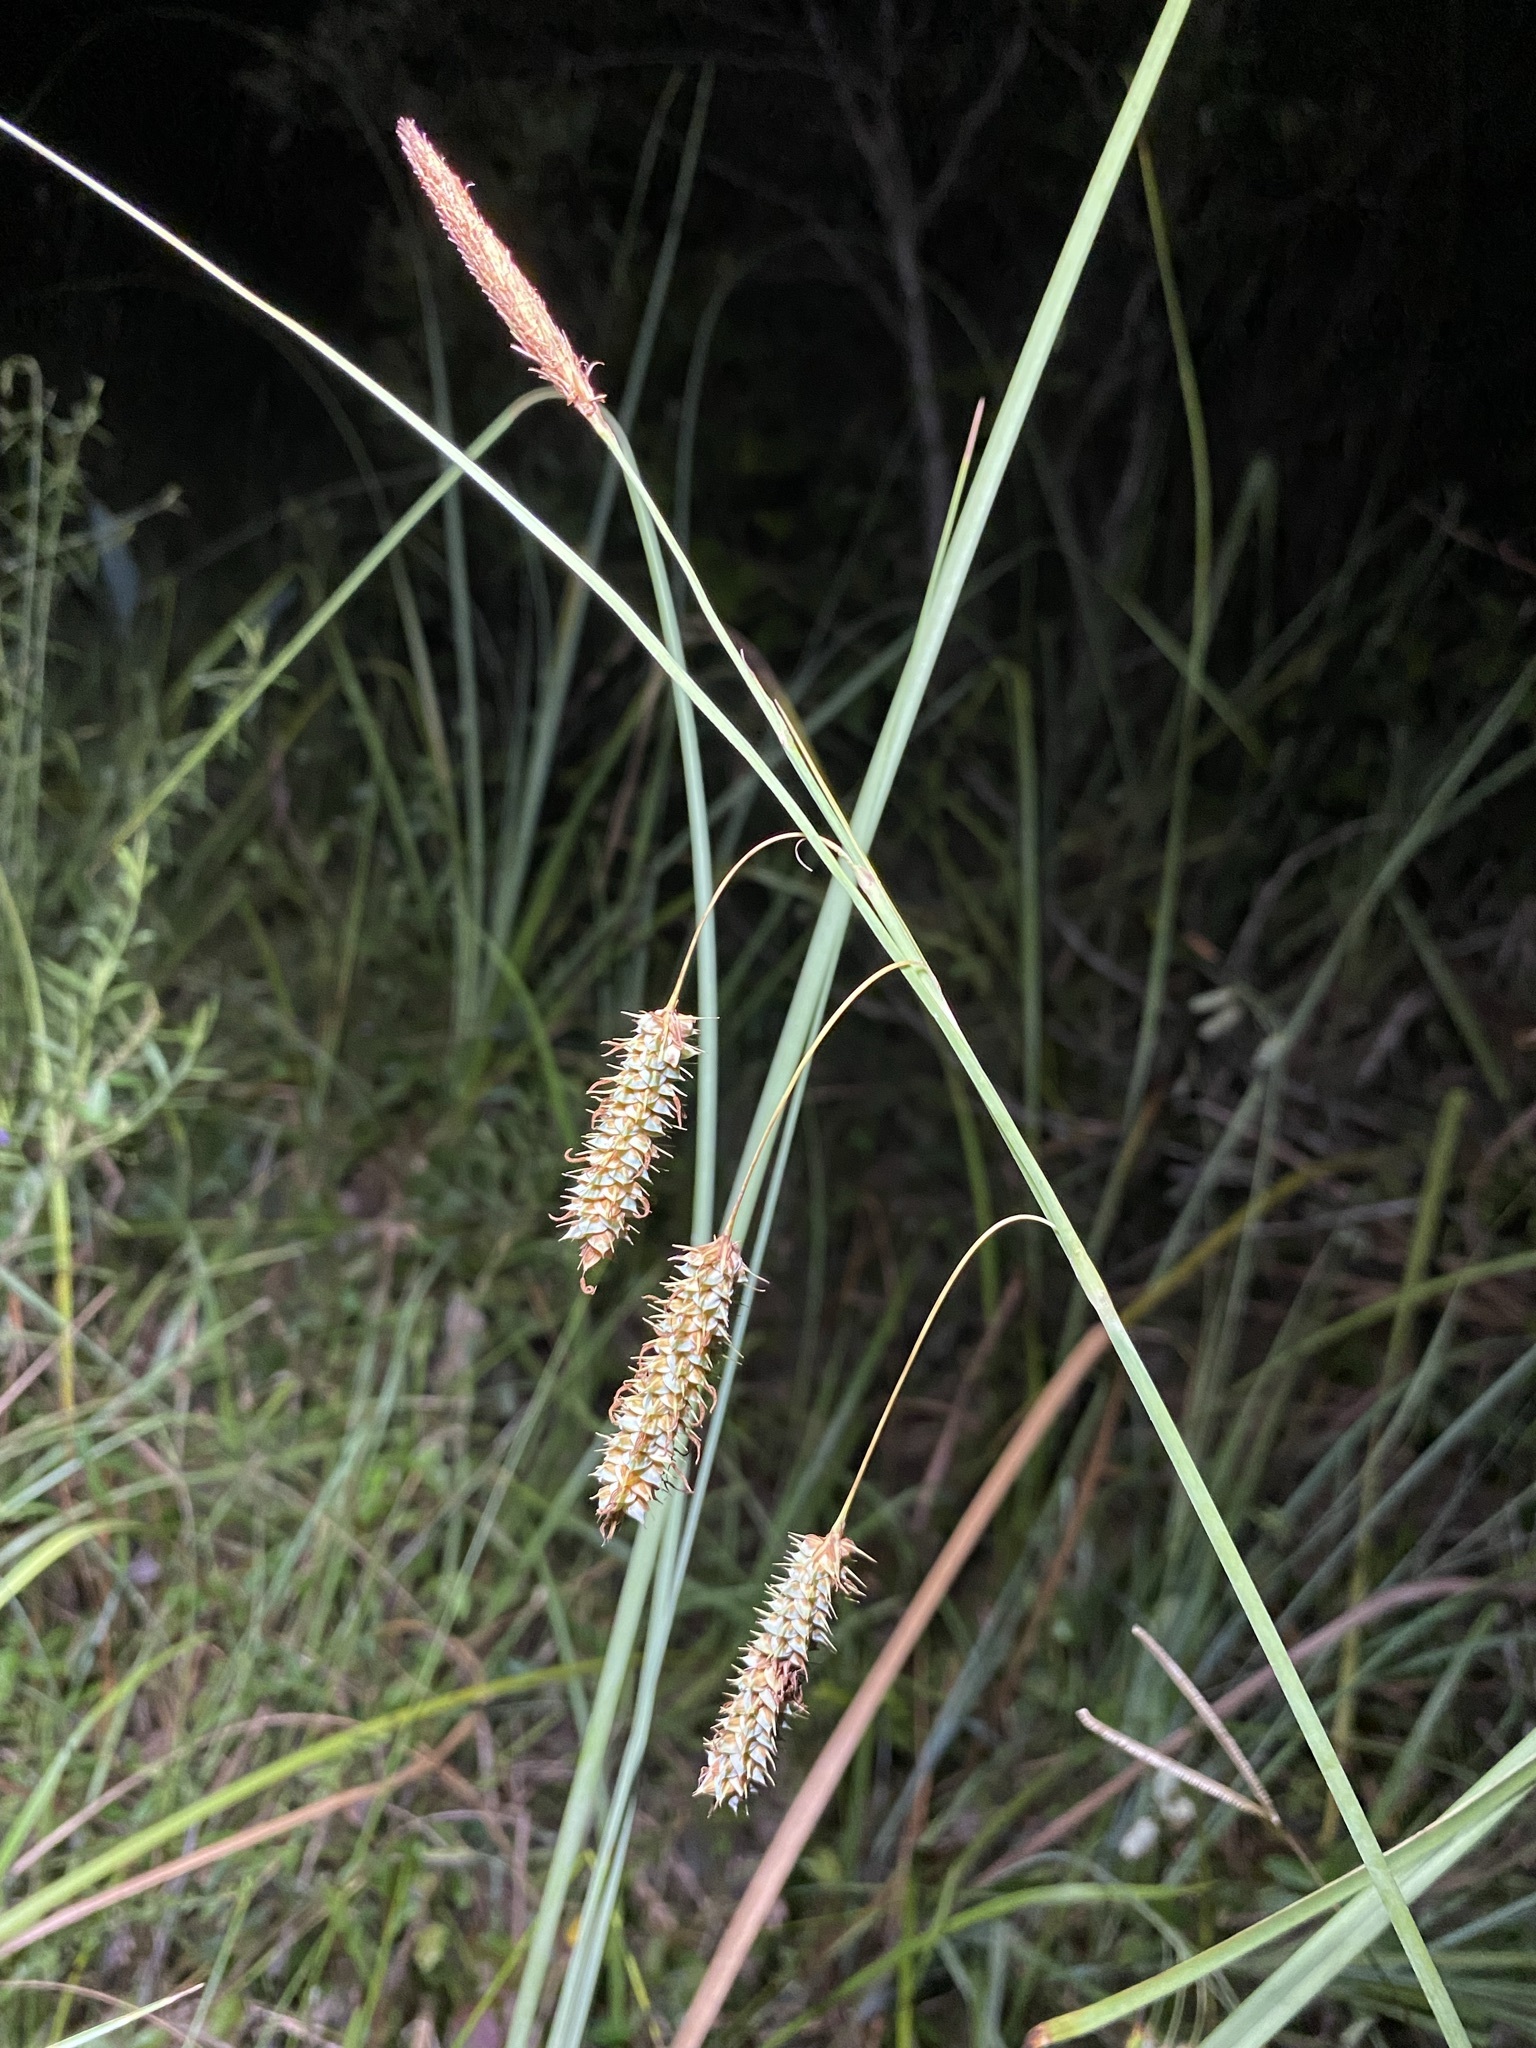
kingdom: Plantae
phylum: Tracheophyta
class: Liliopsida
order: Poales
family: Cyperaceae
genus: Carex
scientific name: Carex glaucescens
